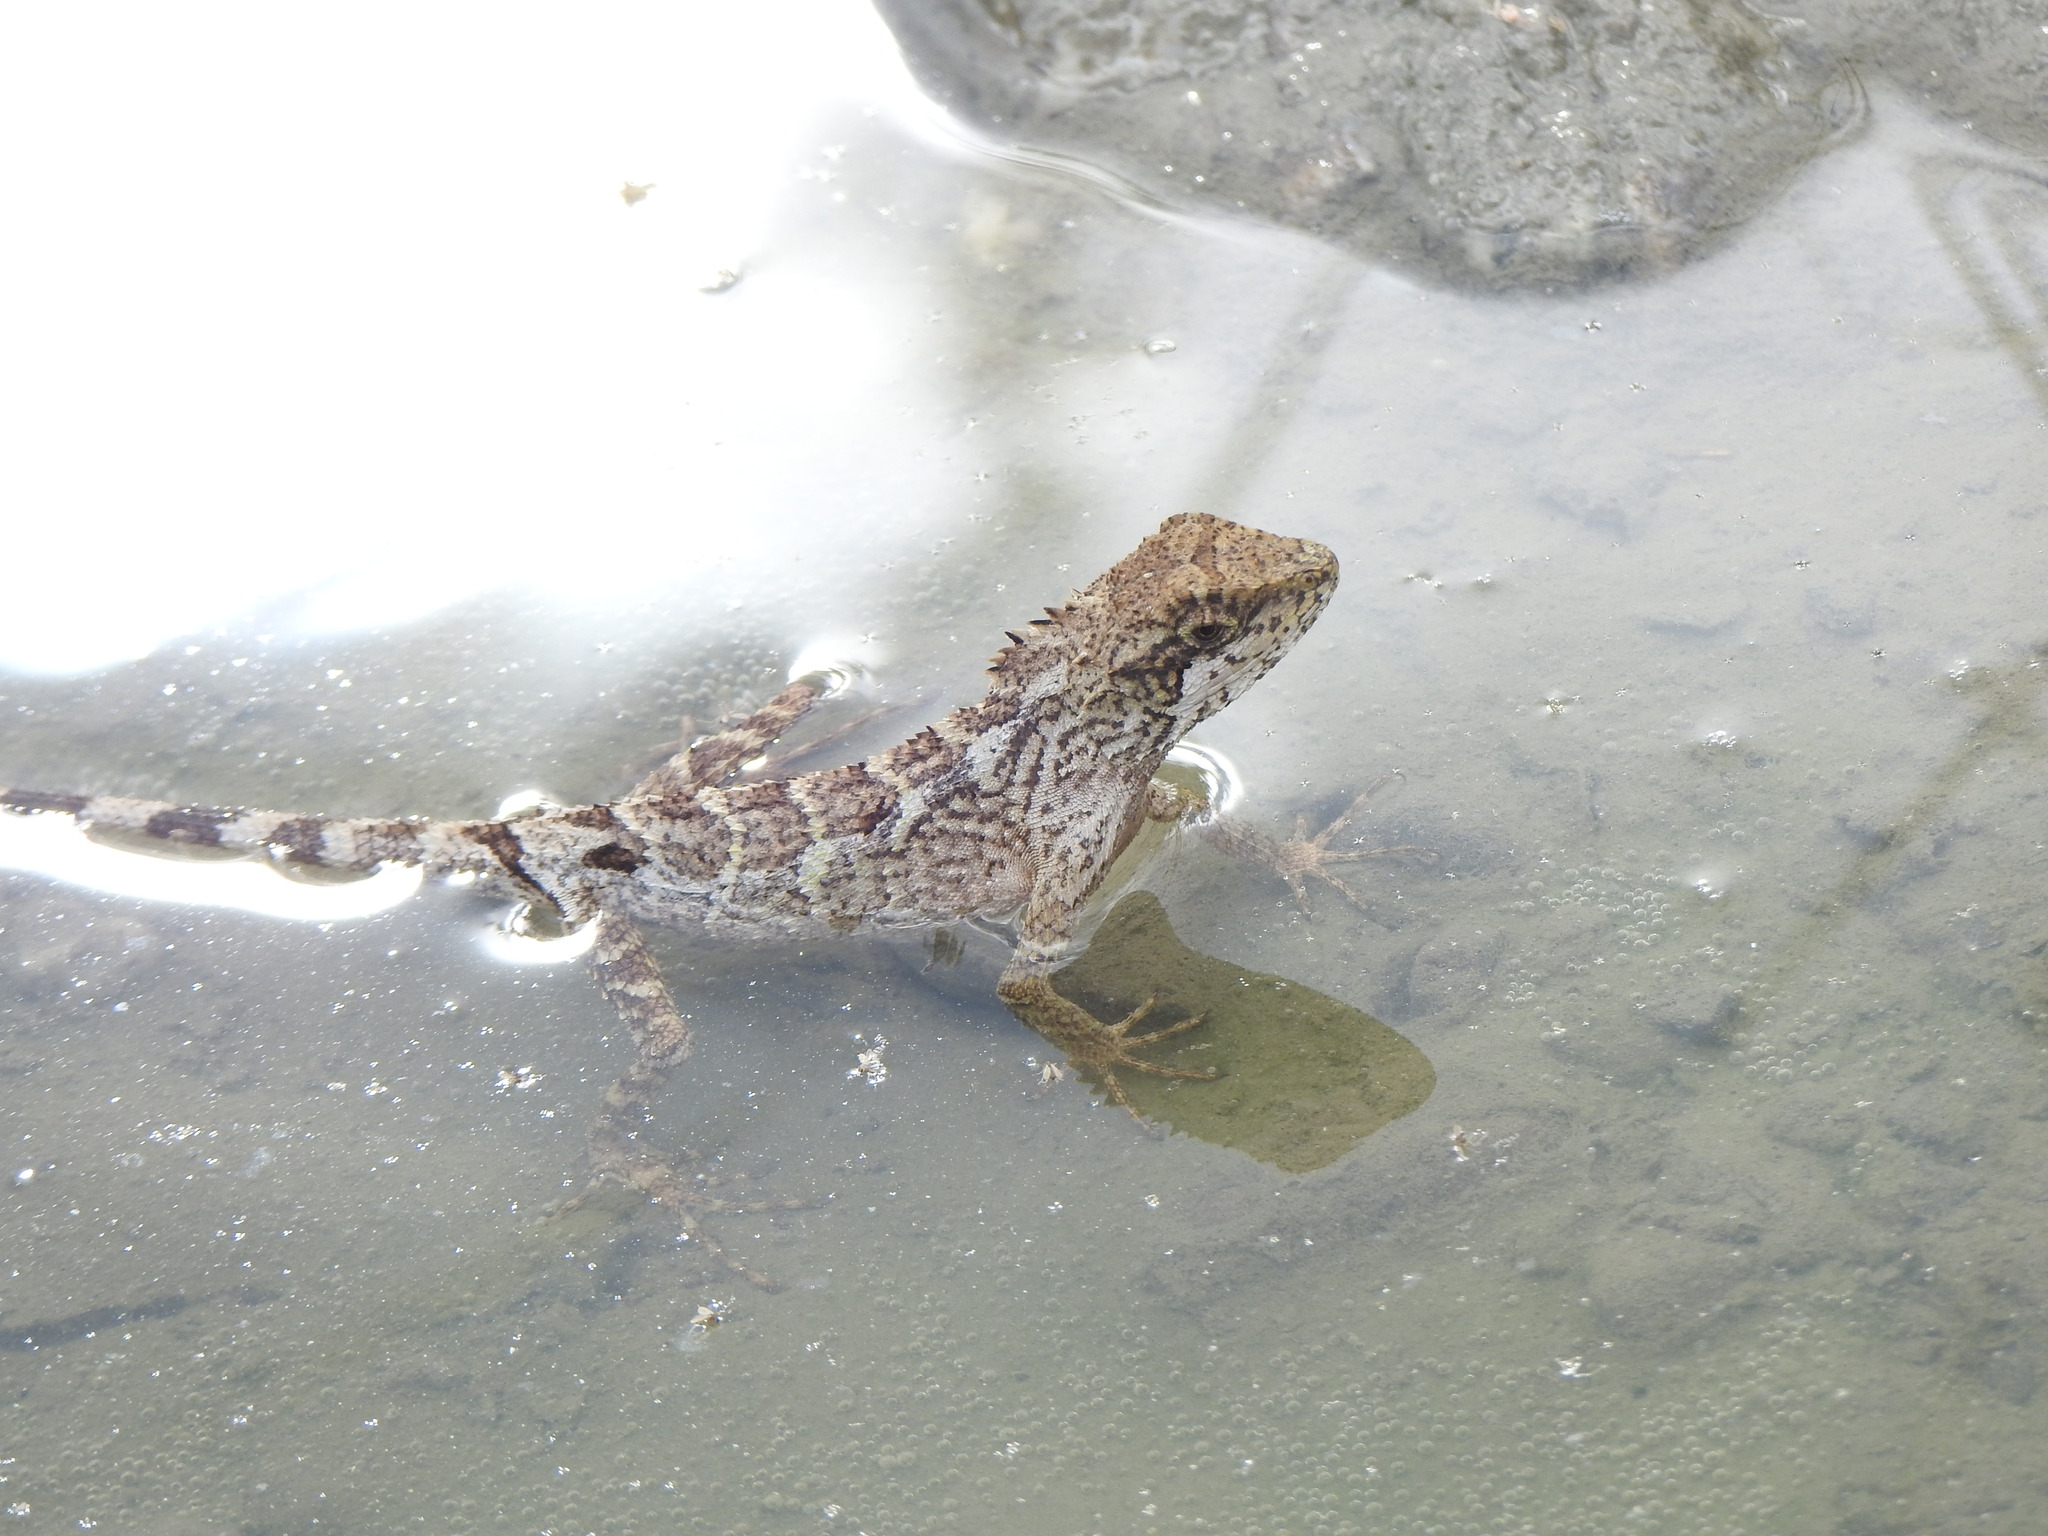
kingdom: Animalia
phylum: Chordata
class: Squamata
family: Agamidae
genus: Diploderma
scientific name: Diploderma swinhonis
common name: Taiwan japalure
